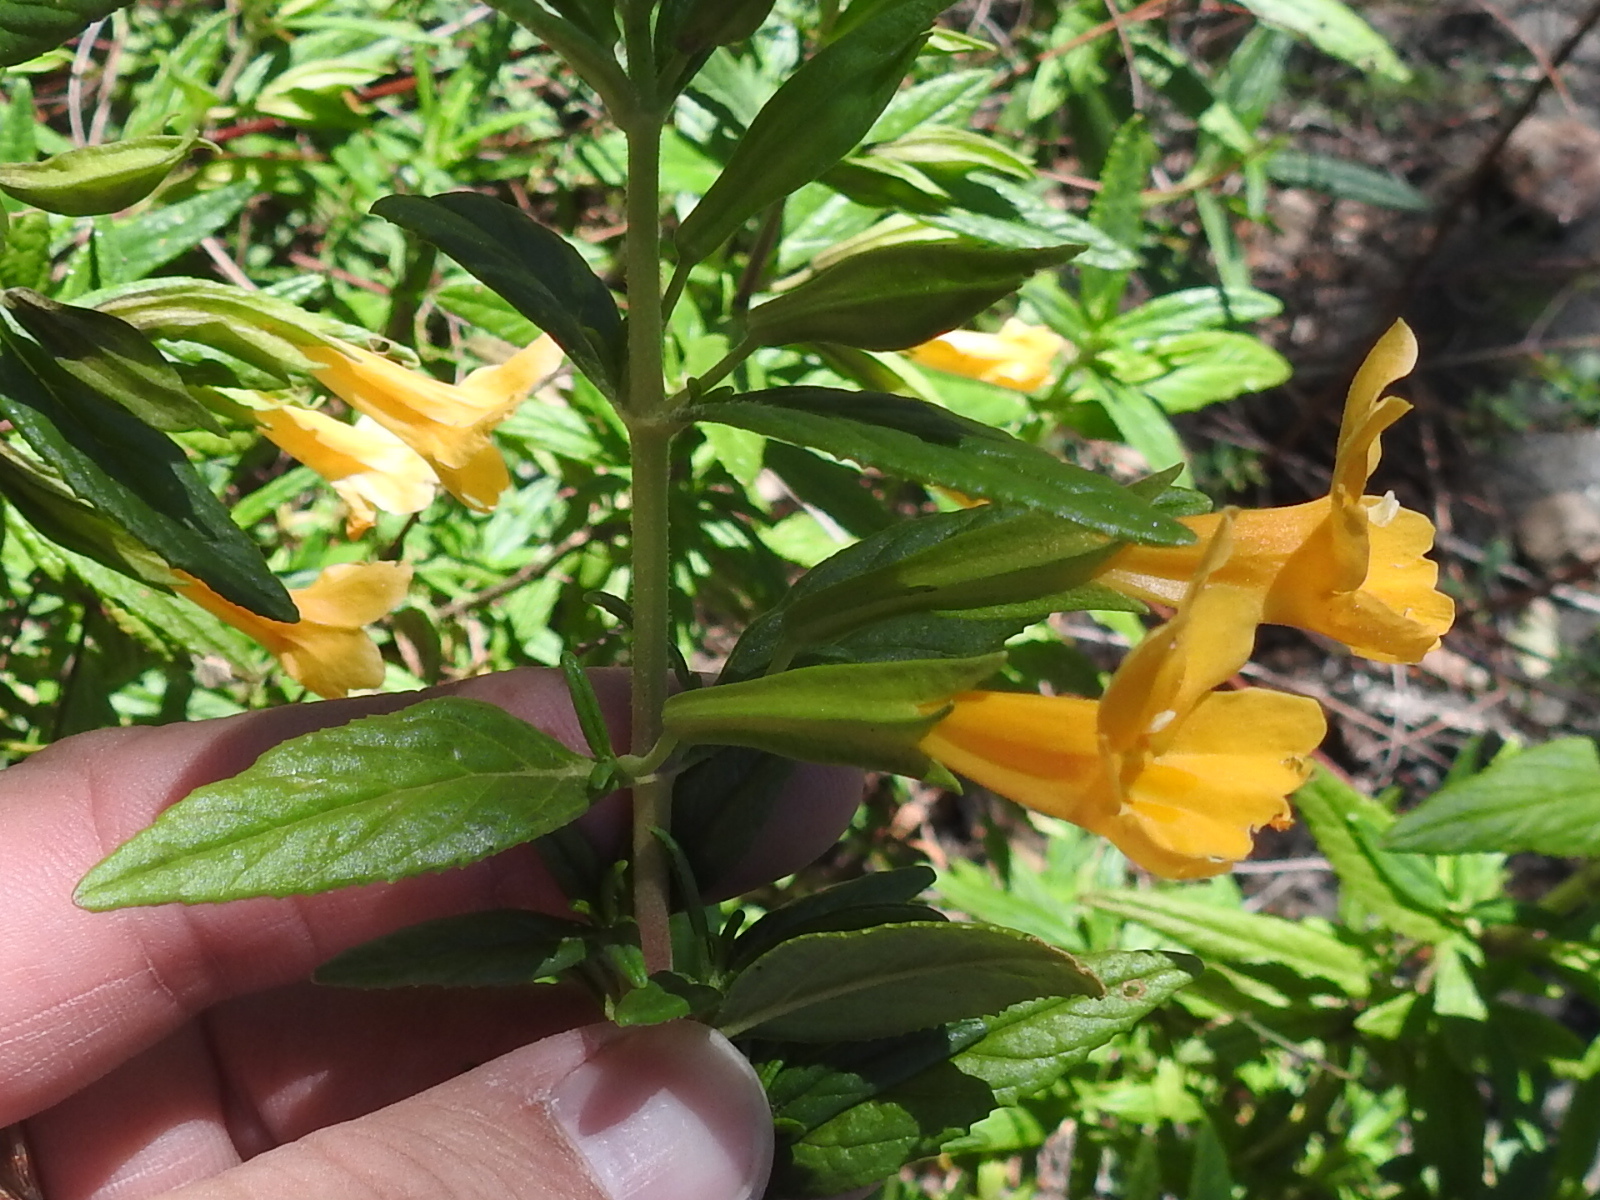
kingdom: Plantae
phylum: Tracheophyta
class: Magnoliopsida
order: Lamiales
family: Phrymaceae
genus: Diplacus
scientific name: Diplacus aurantiacus
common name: Bush monkey-flower
